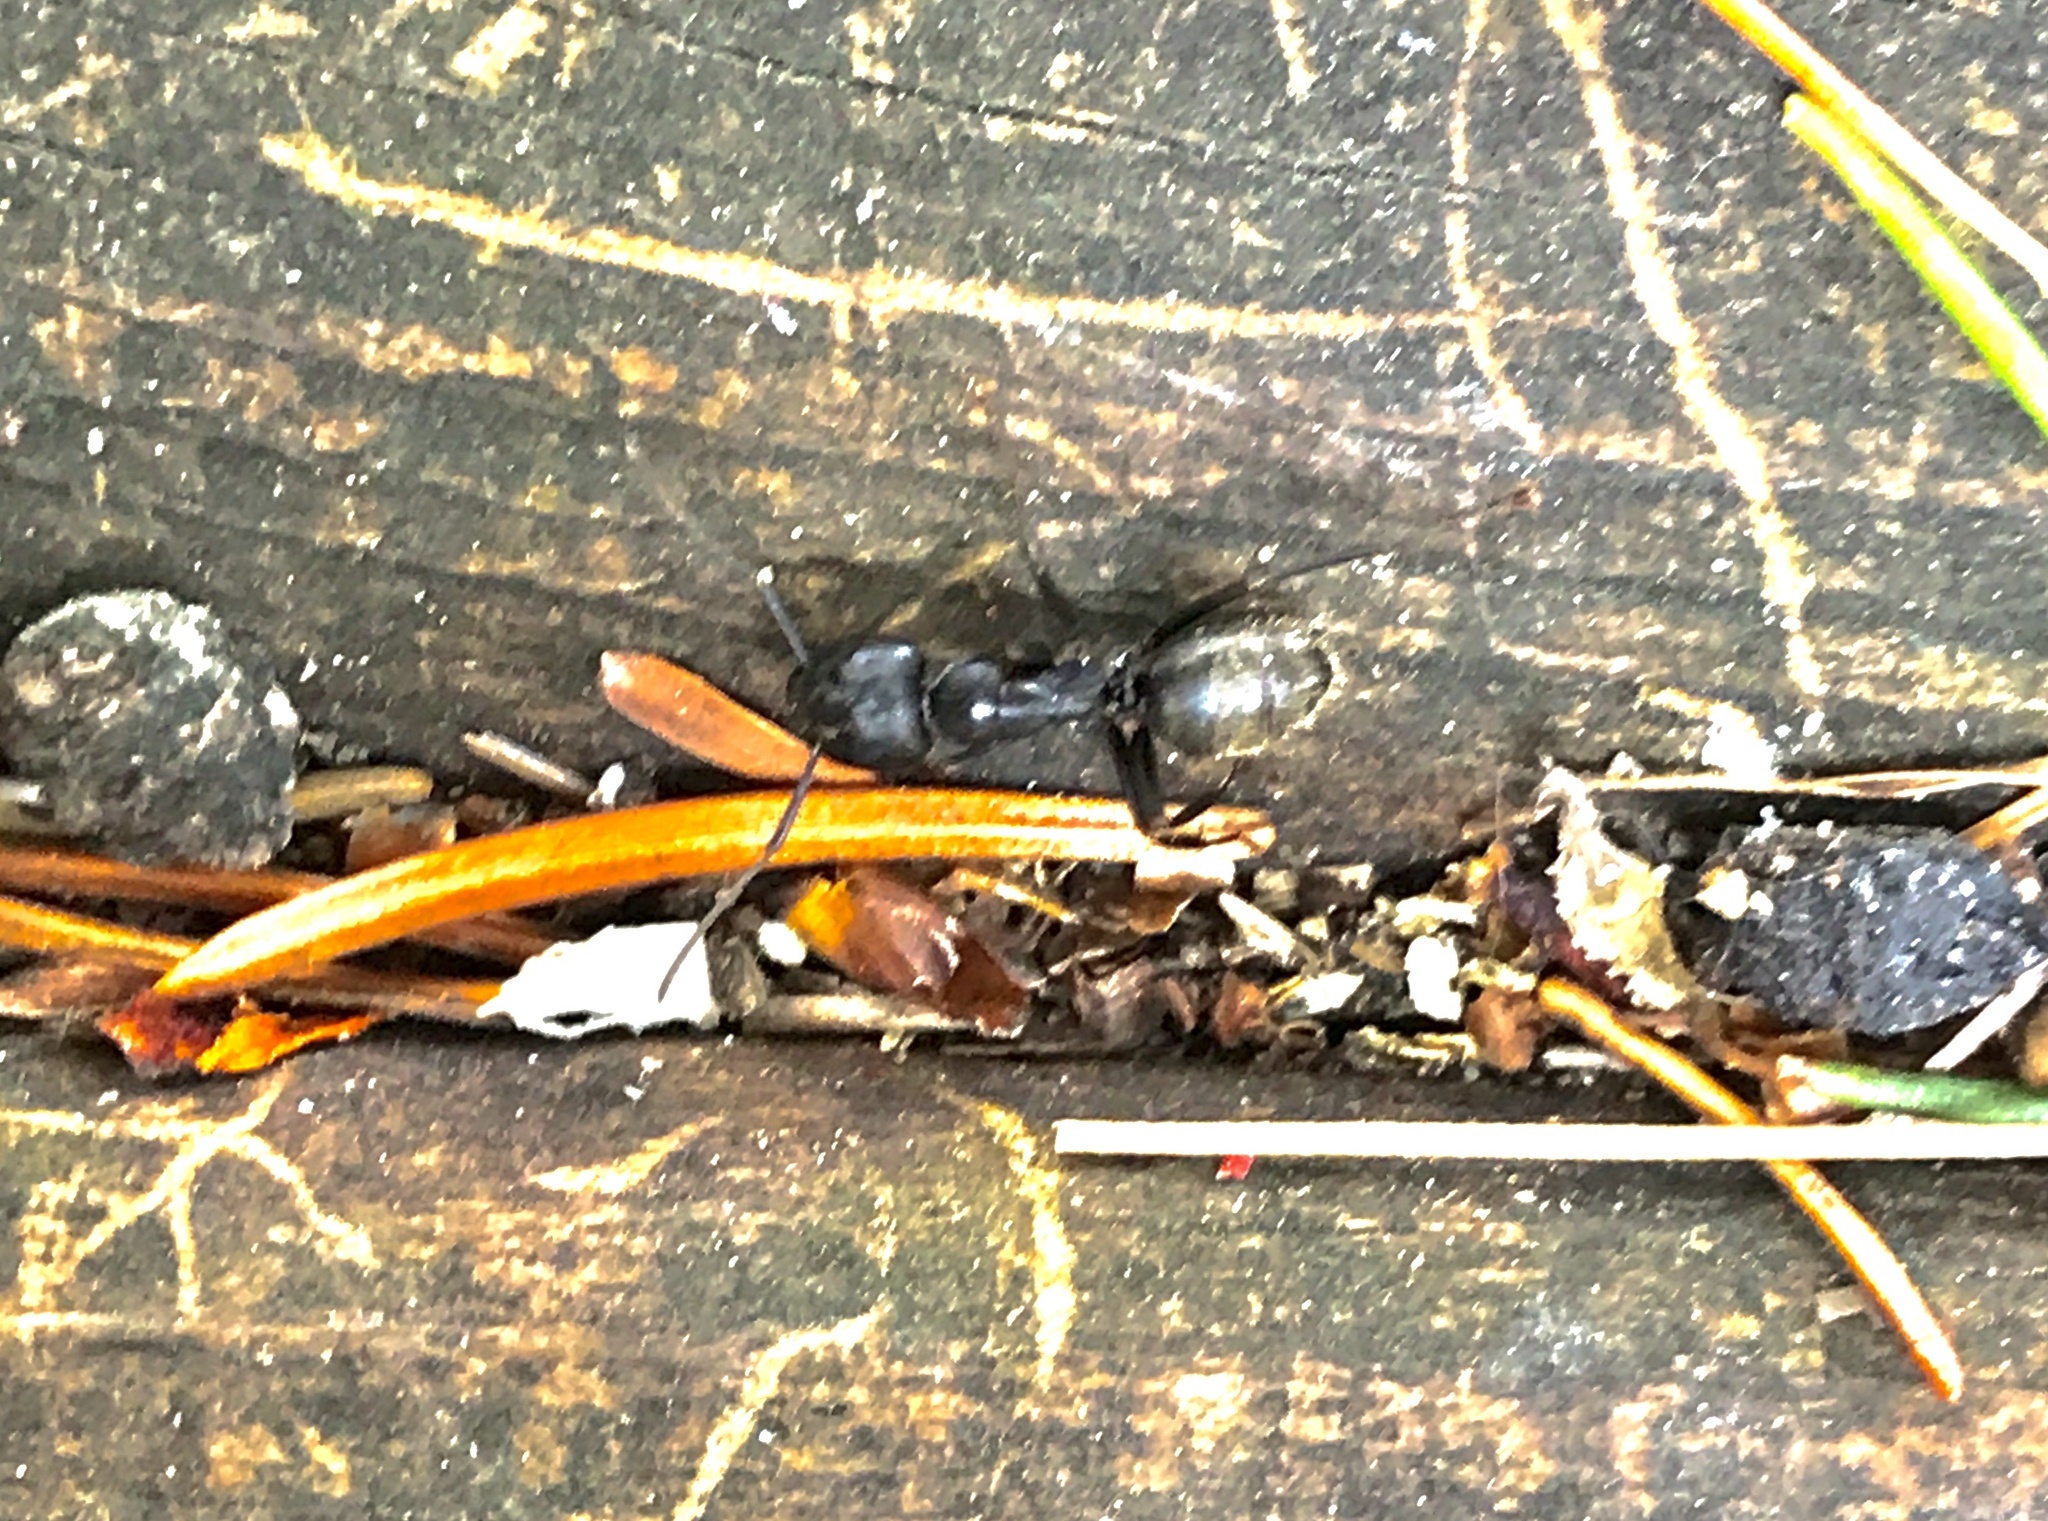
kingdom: Animalia
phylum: Arthropoda
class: Insecta
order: Hymenoptera
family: Formicidae
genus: Camponotus
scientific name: Camponotus pennsylvanicus
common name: Black carpenter ant
